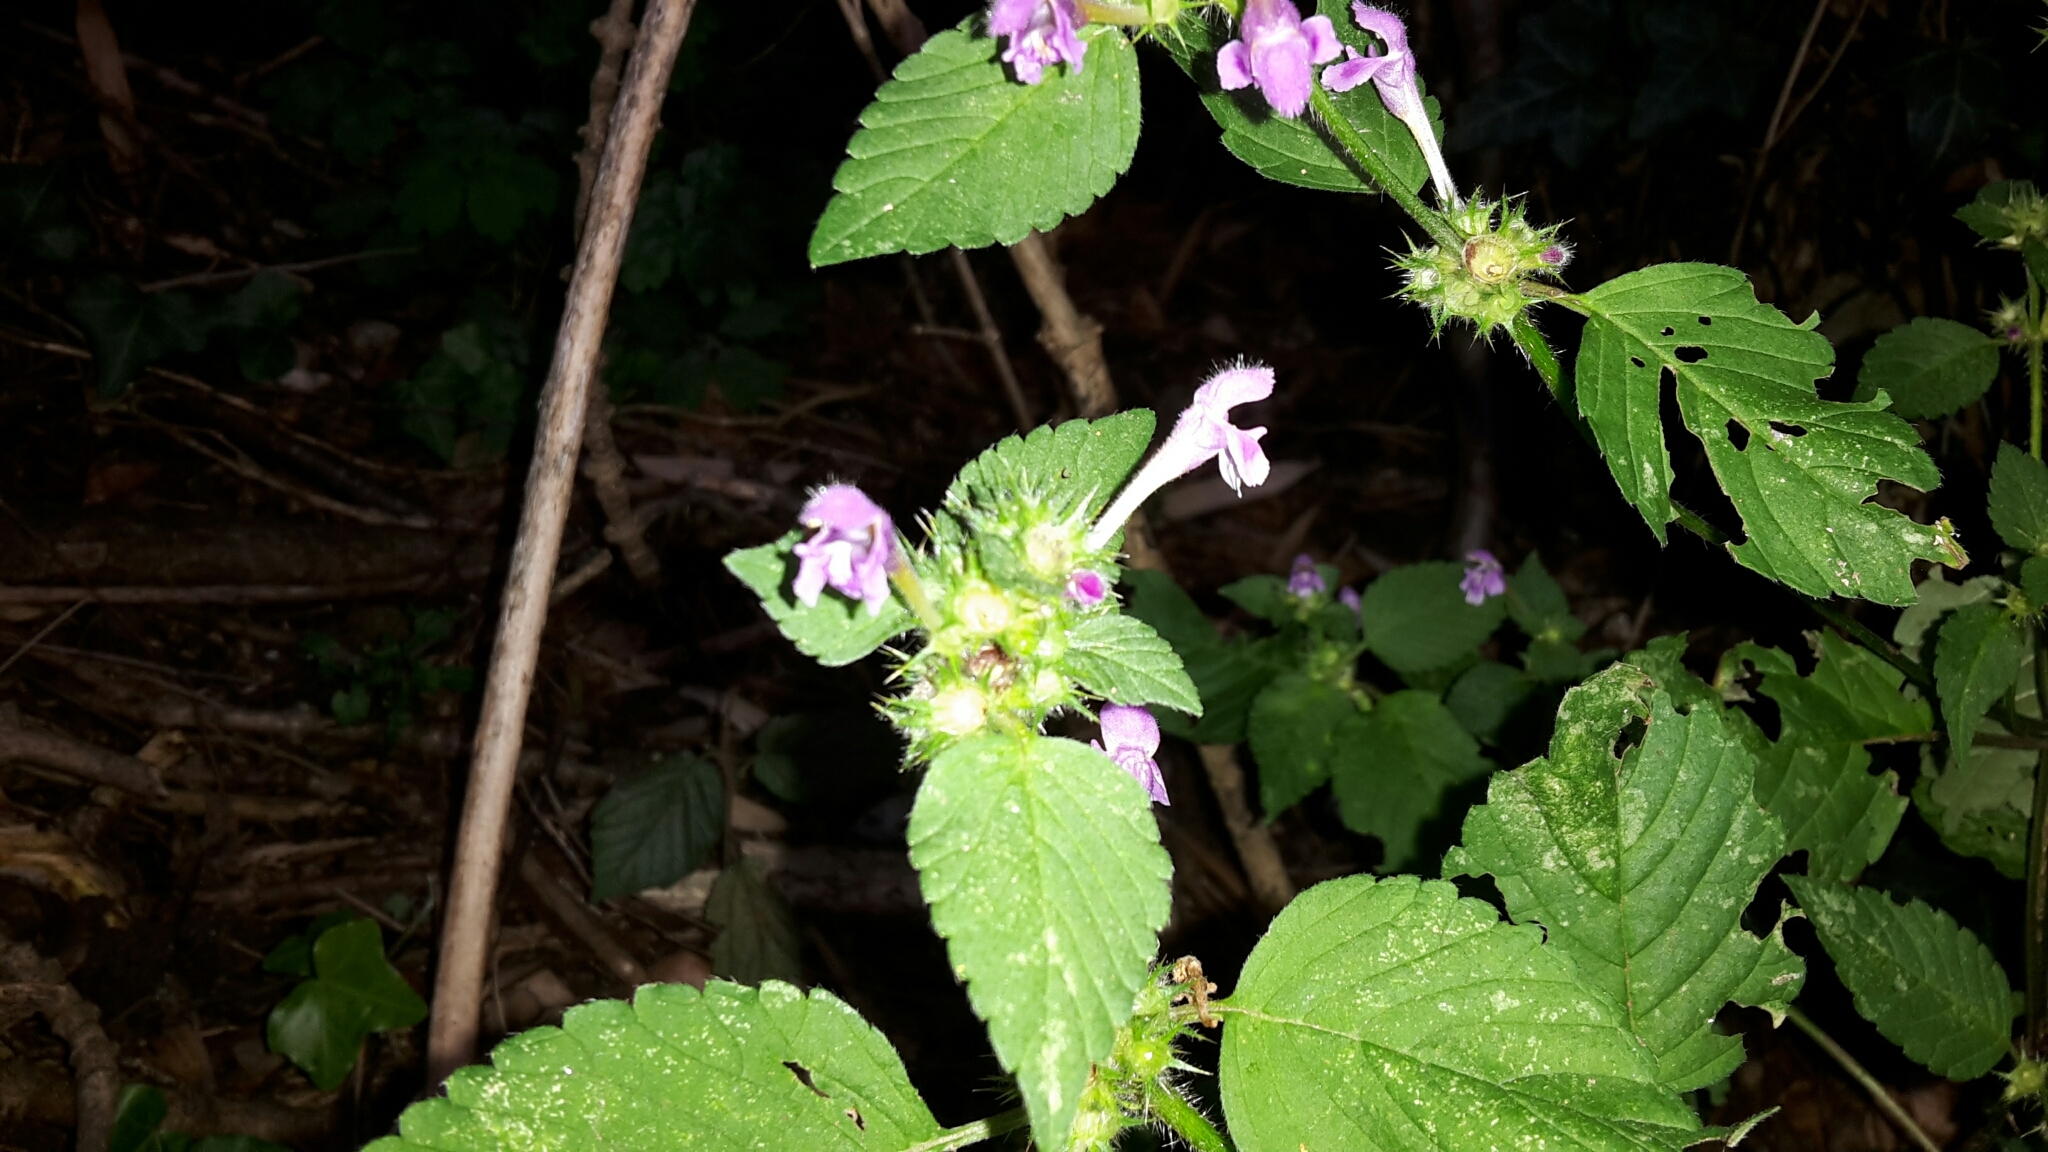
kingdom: Plantae
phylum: Tracheophyta
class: Magnoliopsida
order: Lamiales
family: Lamiaceae
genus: Galeopsis
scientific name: Galeopsis pubescens
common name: Downy hemp-nettle
